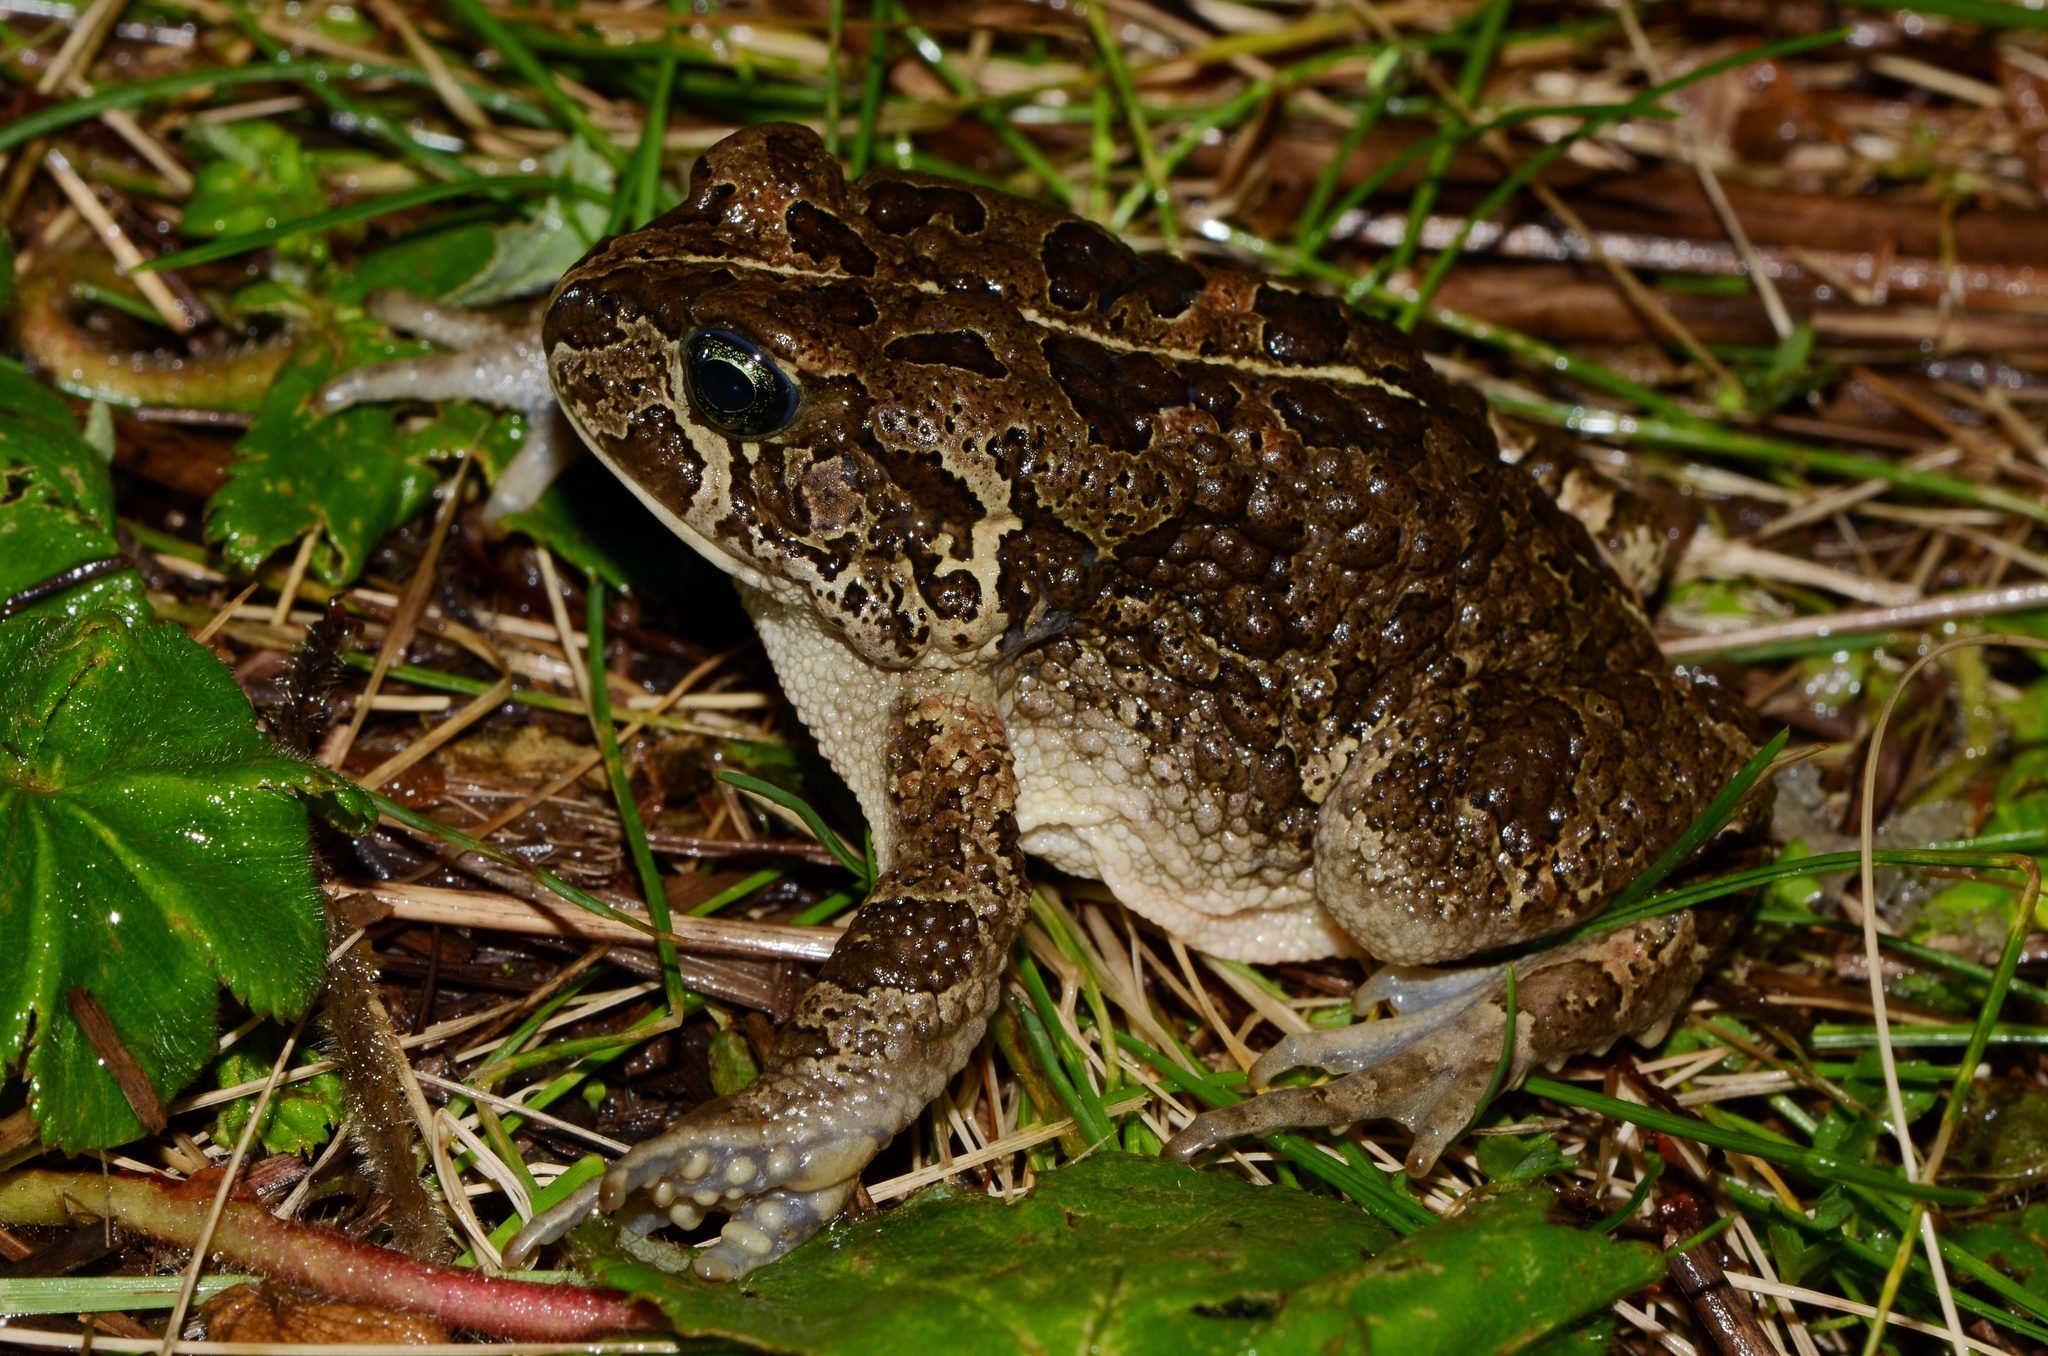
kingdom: Animalia
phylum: Chordata
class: Amphibia
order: Anura
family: Bufonidae
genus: Sclerophrys
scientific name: Sclerophrys asmarae
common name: Asmara toad
